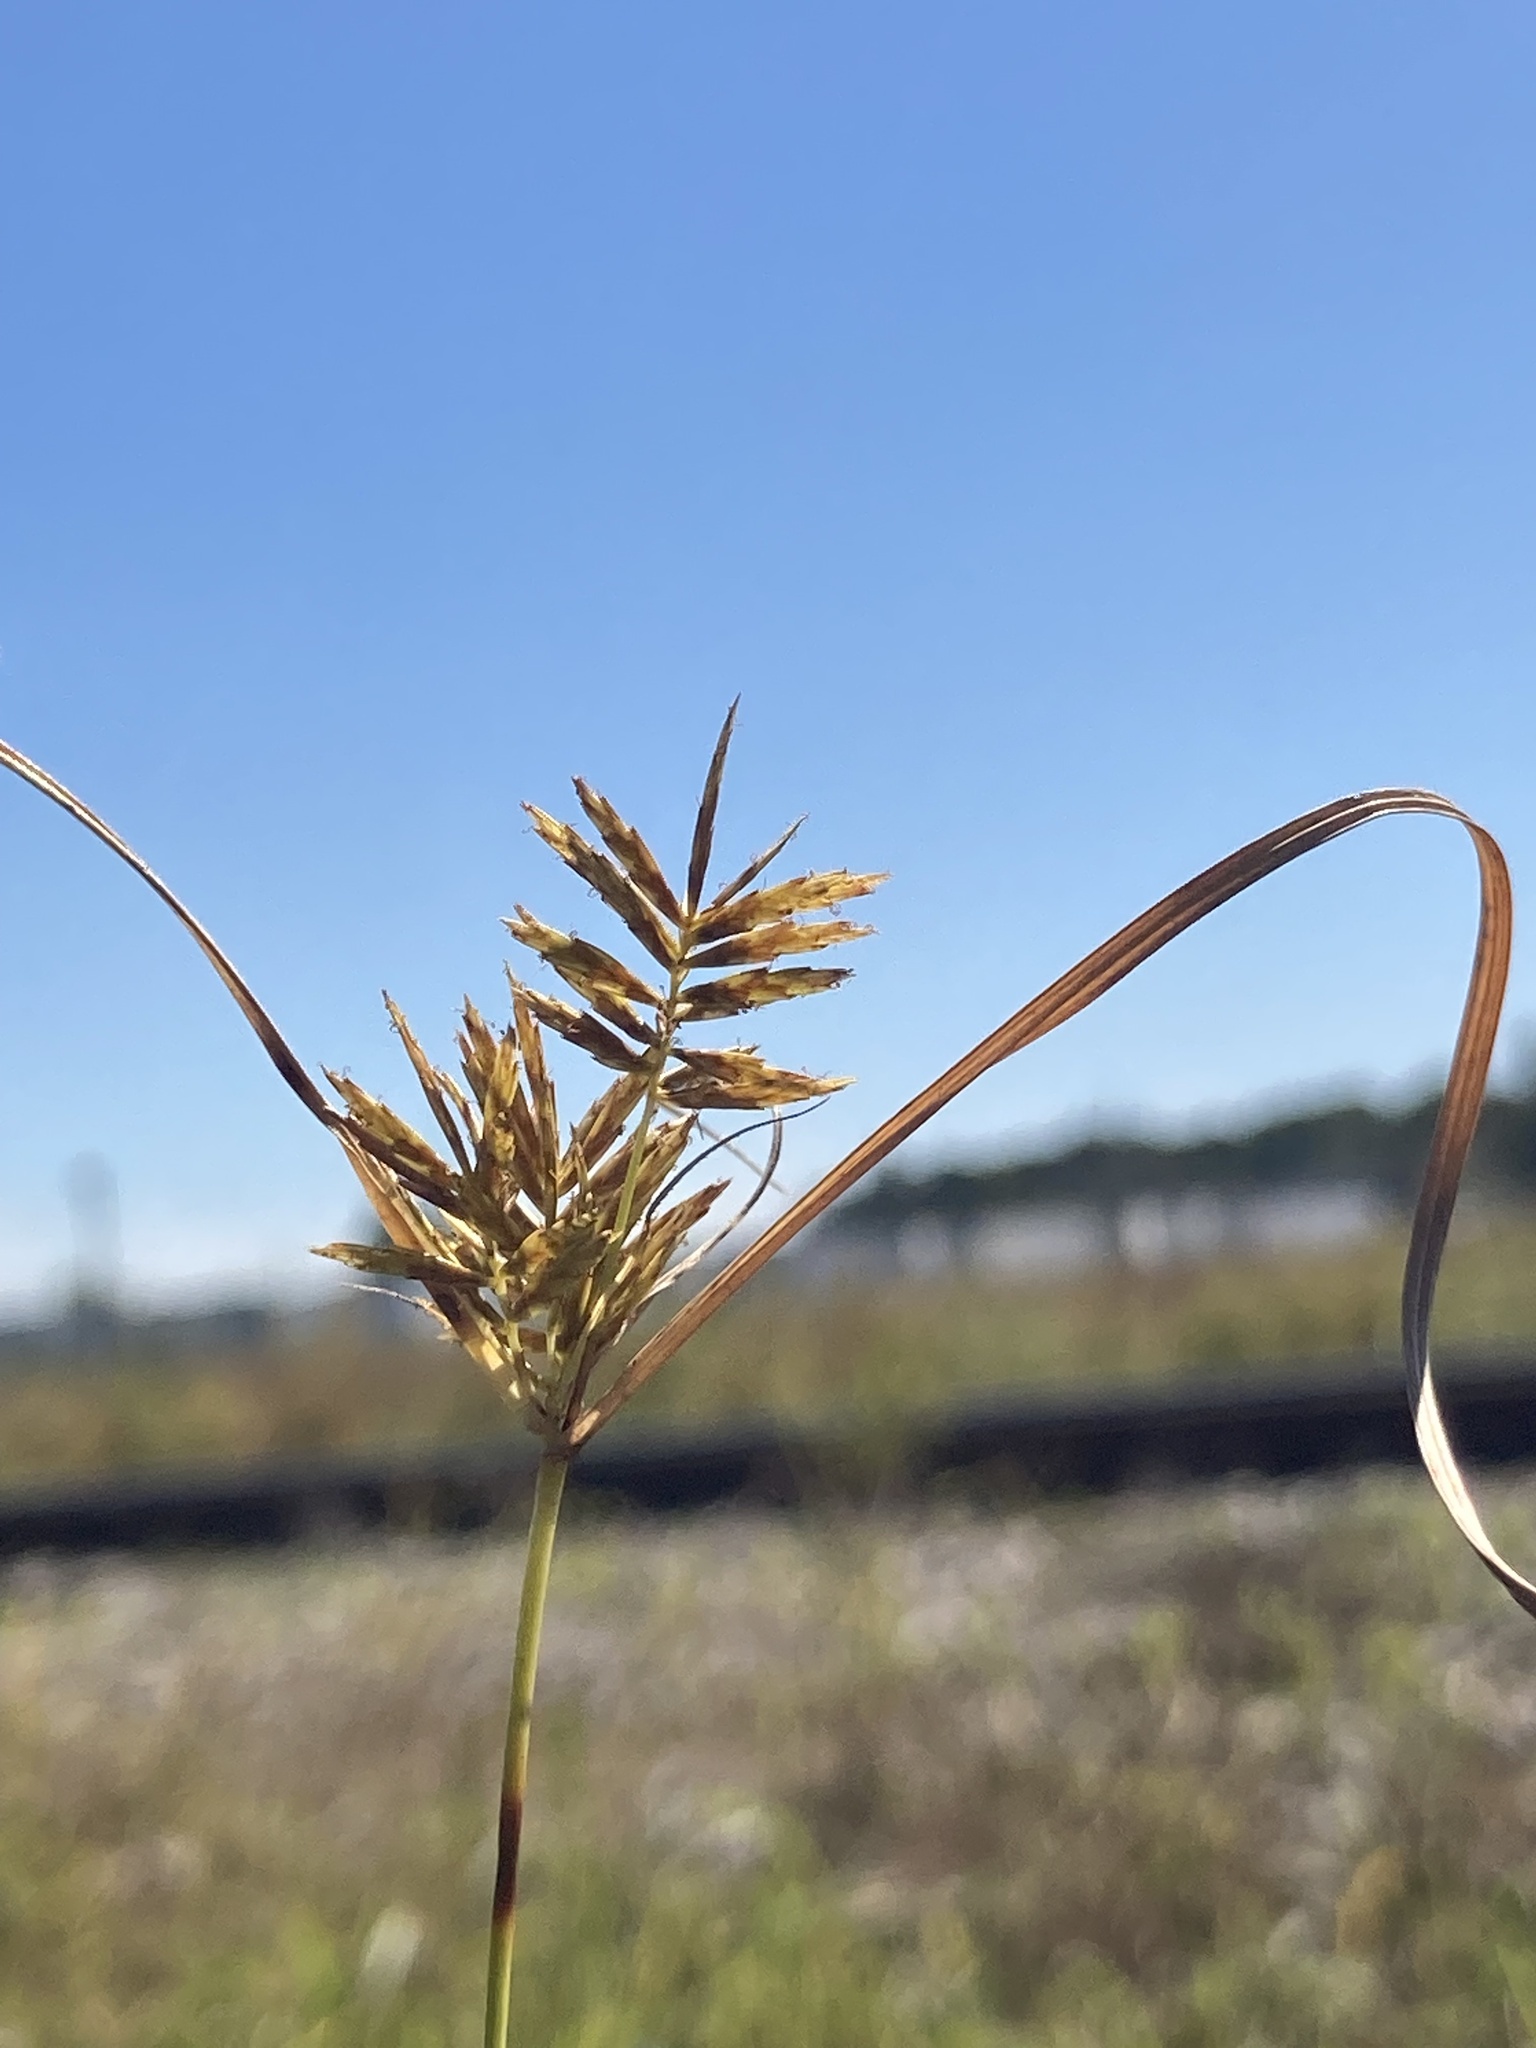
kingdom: Plantae
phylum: Tracheophyta
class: Liliopsida
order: Poales
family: Cyperaceae
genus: Cyperus
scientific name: Cyperus strigosus
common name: False nutsedge
